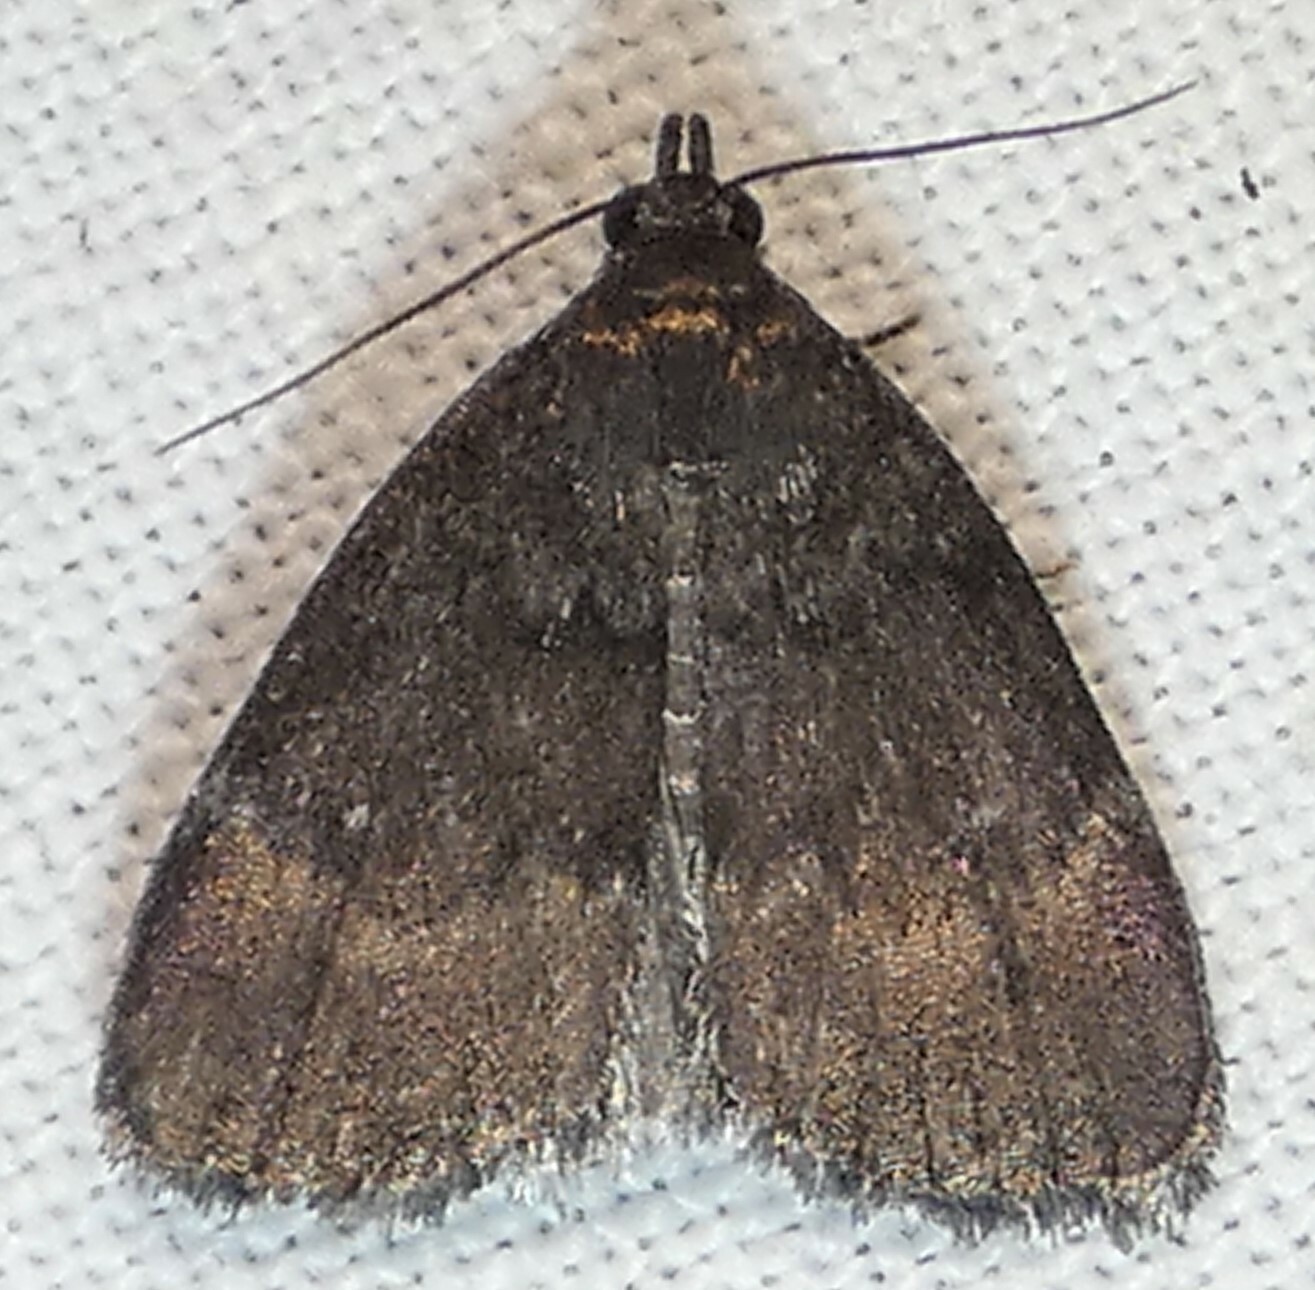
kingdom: Animalia
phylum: Arthropoda
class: Insecta
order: Lepidoptera
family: Erebidae
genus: Idia
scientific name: Idia rotundalis
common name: Rotund idia moth
